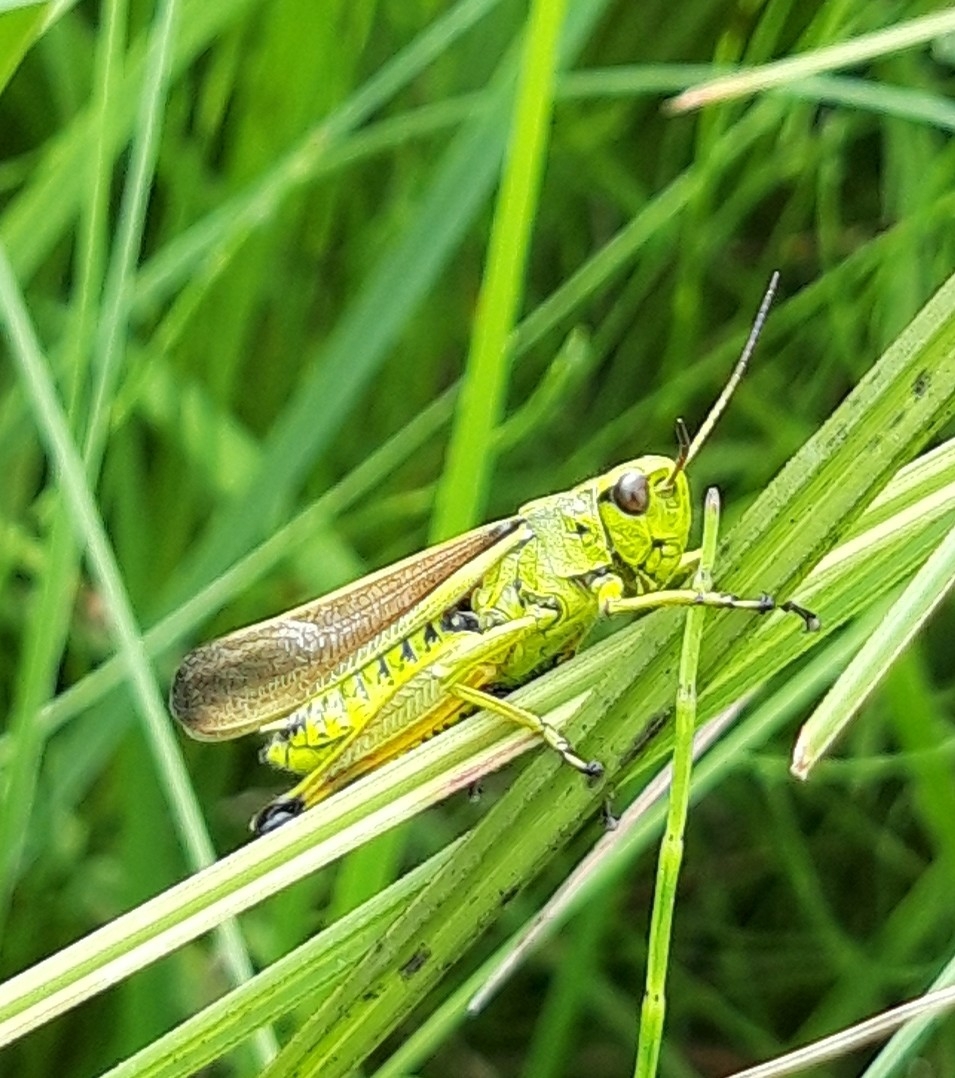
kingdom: Animalia
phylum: Arthropoda
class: Insecta
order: Orthoptera
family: Acrididae
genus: Stethophyma
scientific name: Stethophyma grossum
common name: Large marsh grasshopper
